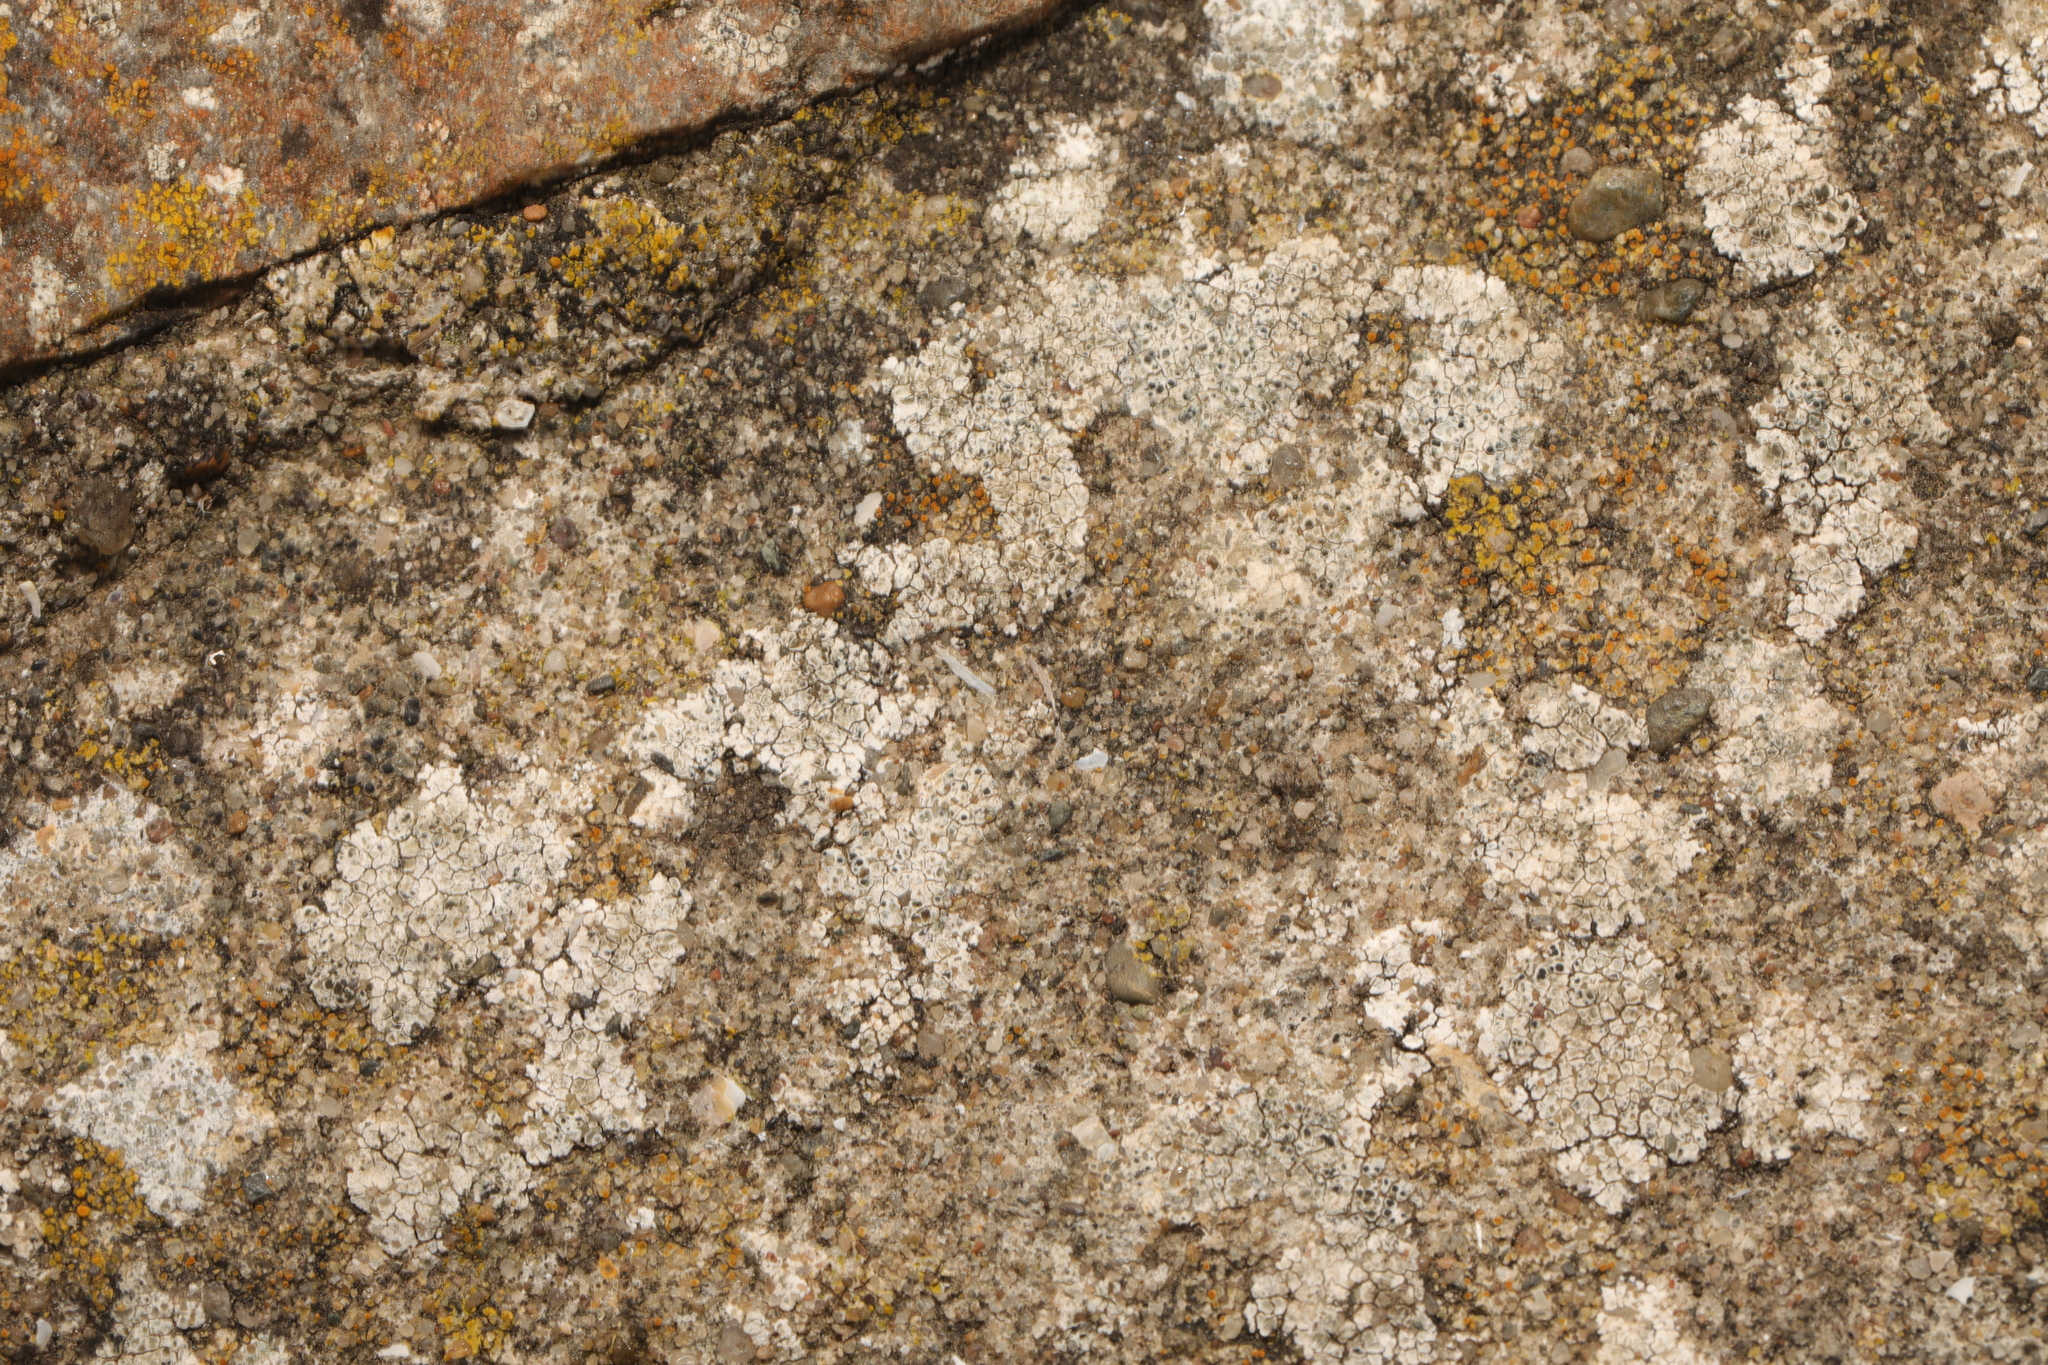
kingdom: Fungi
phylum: Ascomycota
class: Lecanoromycetes
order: Lecanorales
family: Lecanoraceae
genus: Polyozosia
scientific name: Polyozosia albescens
